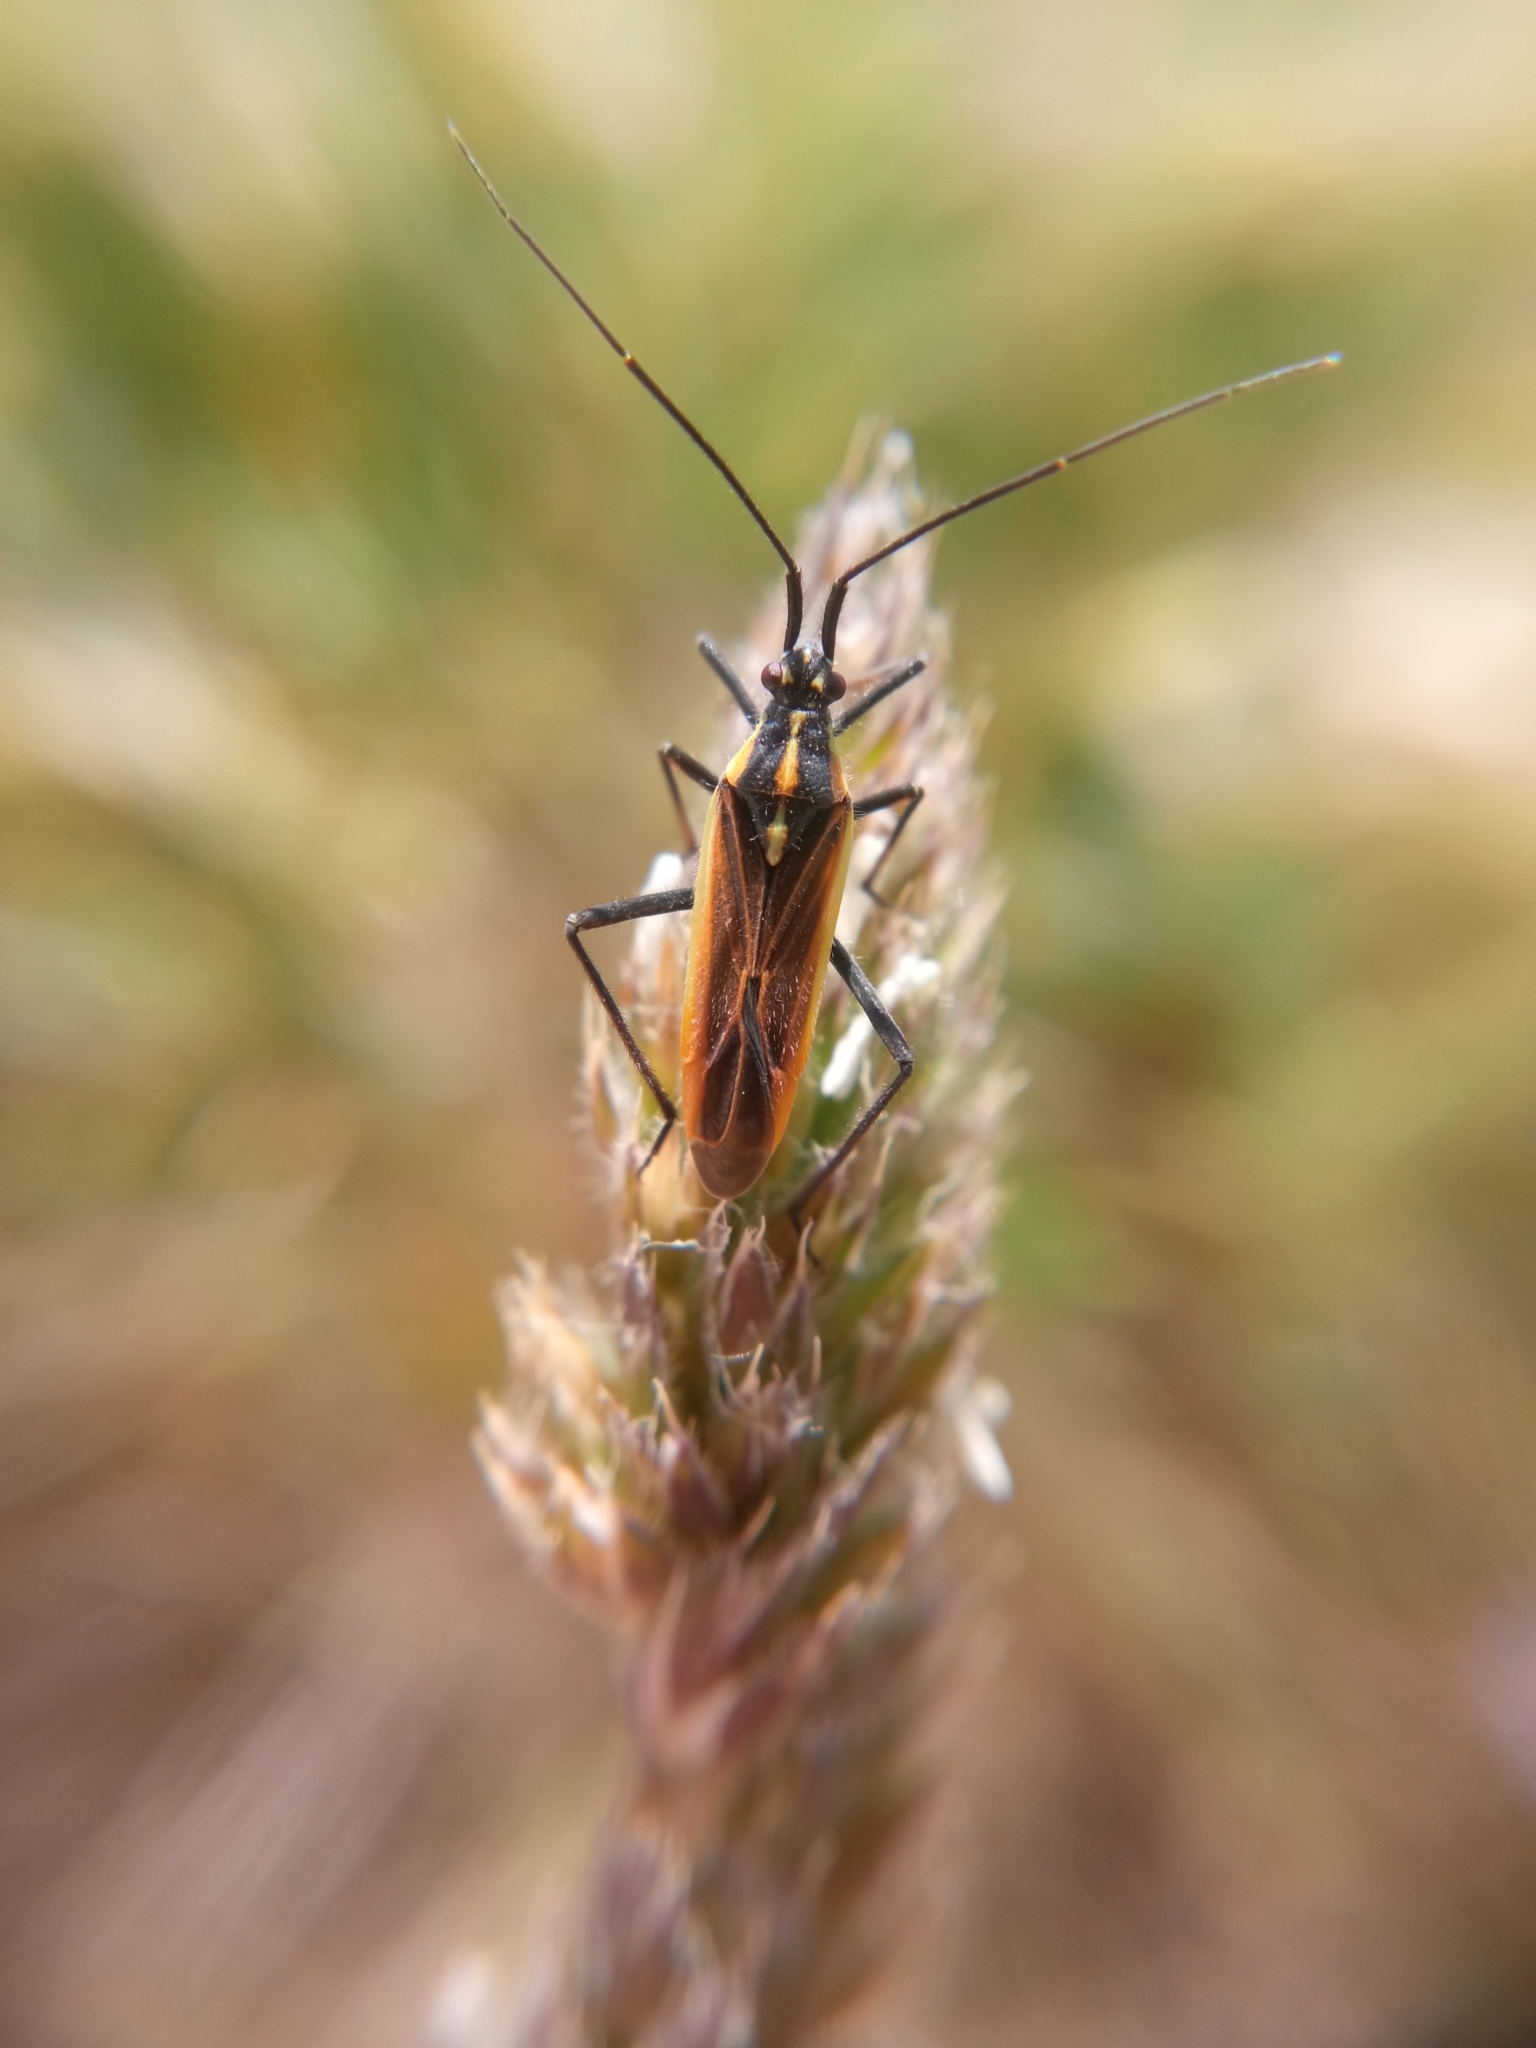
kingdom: Animalia
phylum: Arthropoda
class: Insecta
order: Hemiptera
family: Miridae
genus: Leptopterna
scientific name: Leptopterna dolabrata
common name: Meadow plant bug
